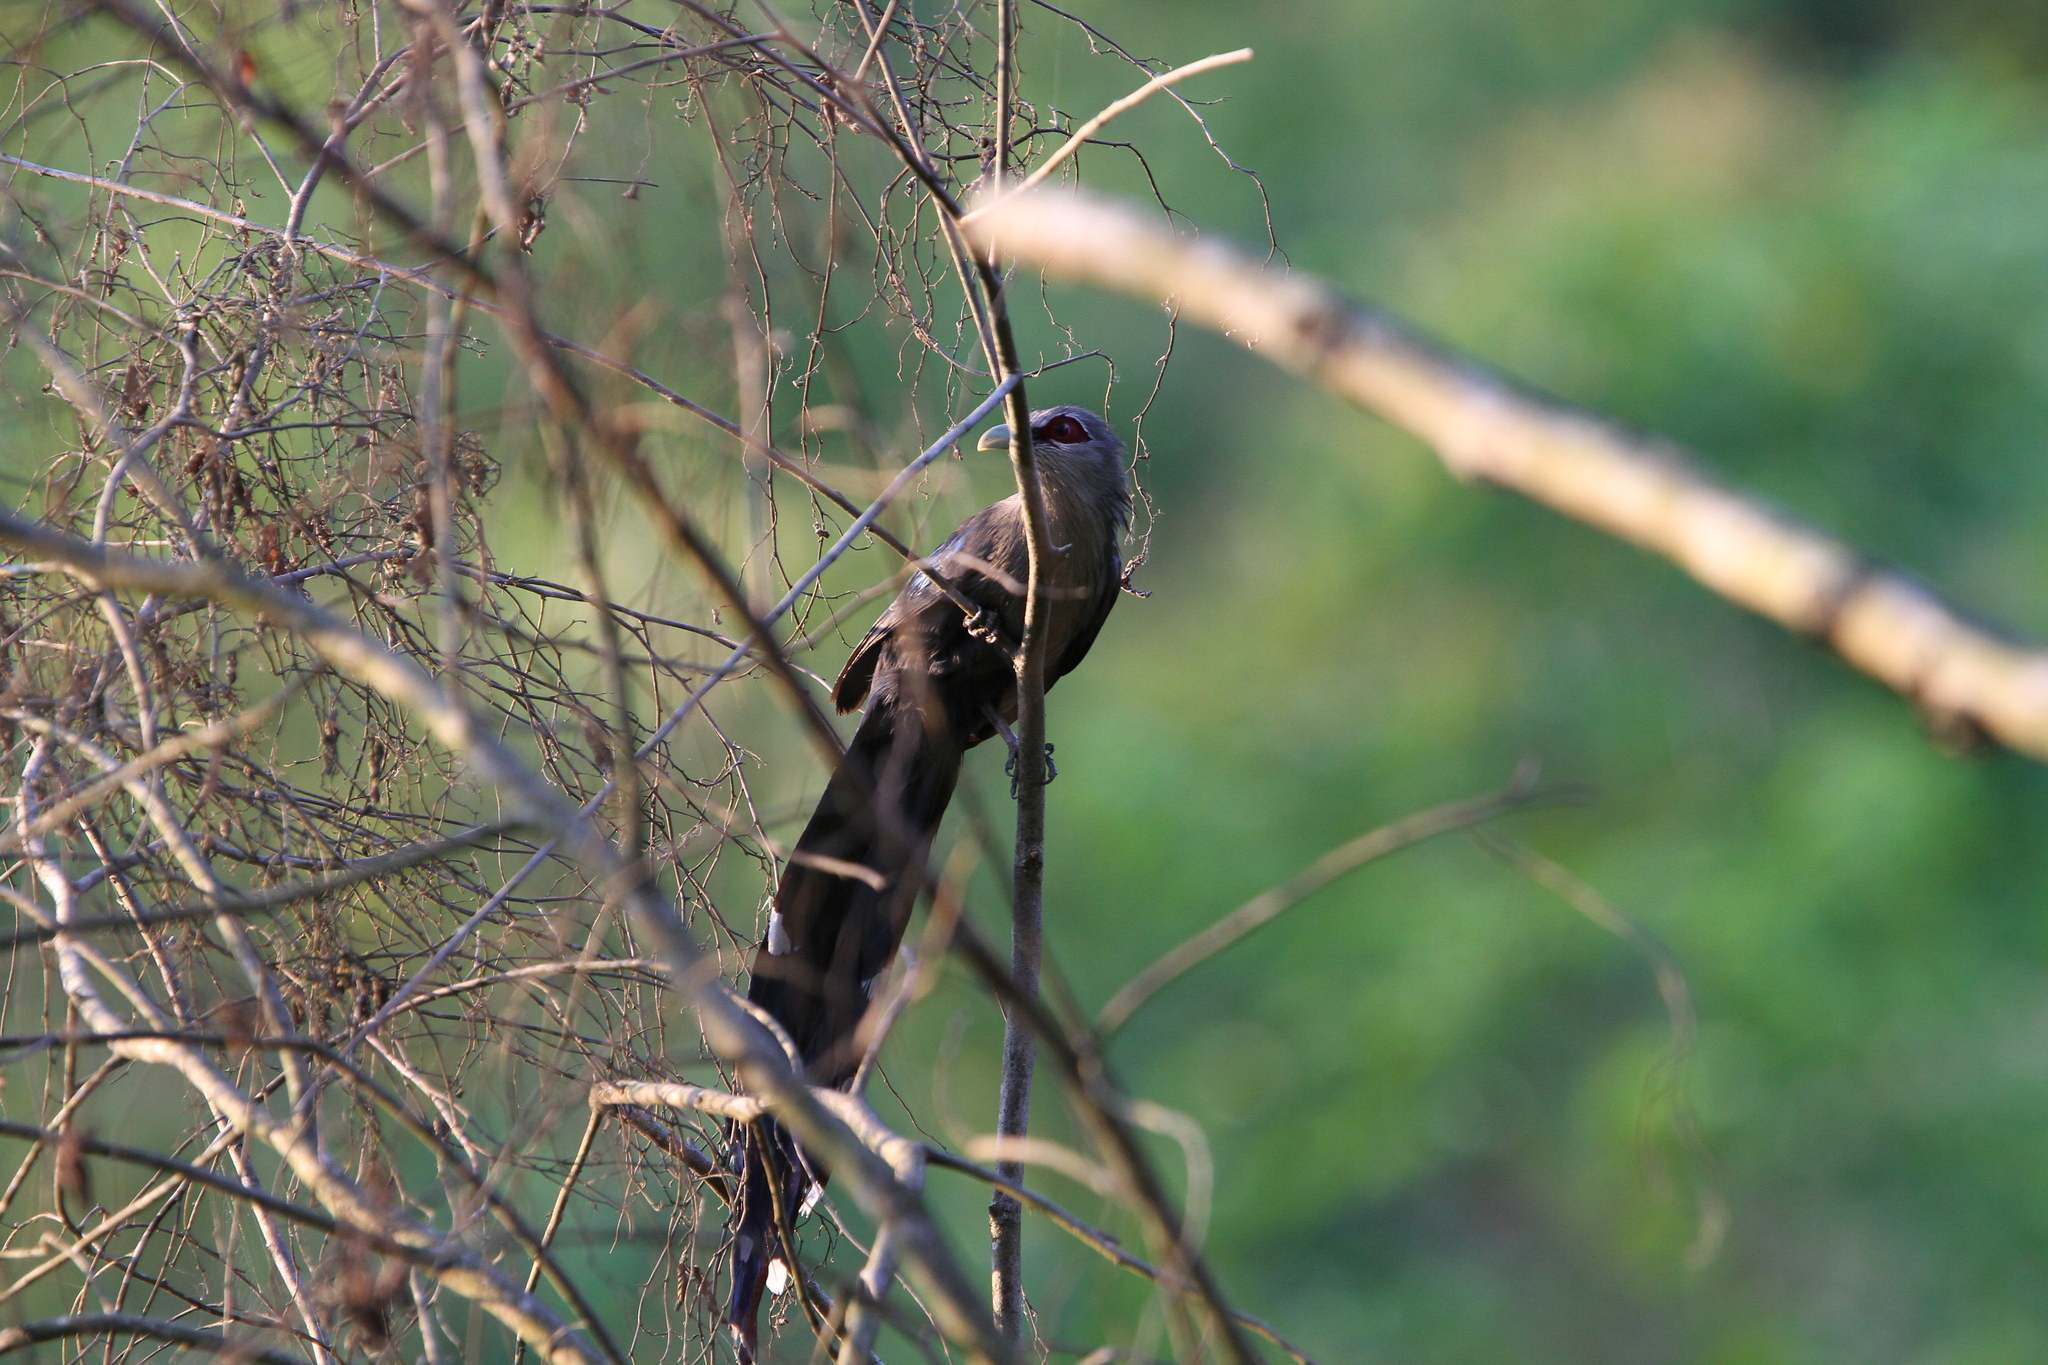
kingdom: Animalia
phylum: Chordata
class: Aves
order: Cuculiformes
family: Cuculidae
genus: Rhopodytes
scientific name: Rhopodytes tristis
